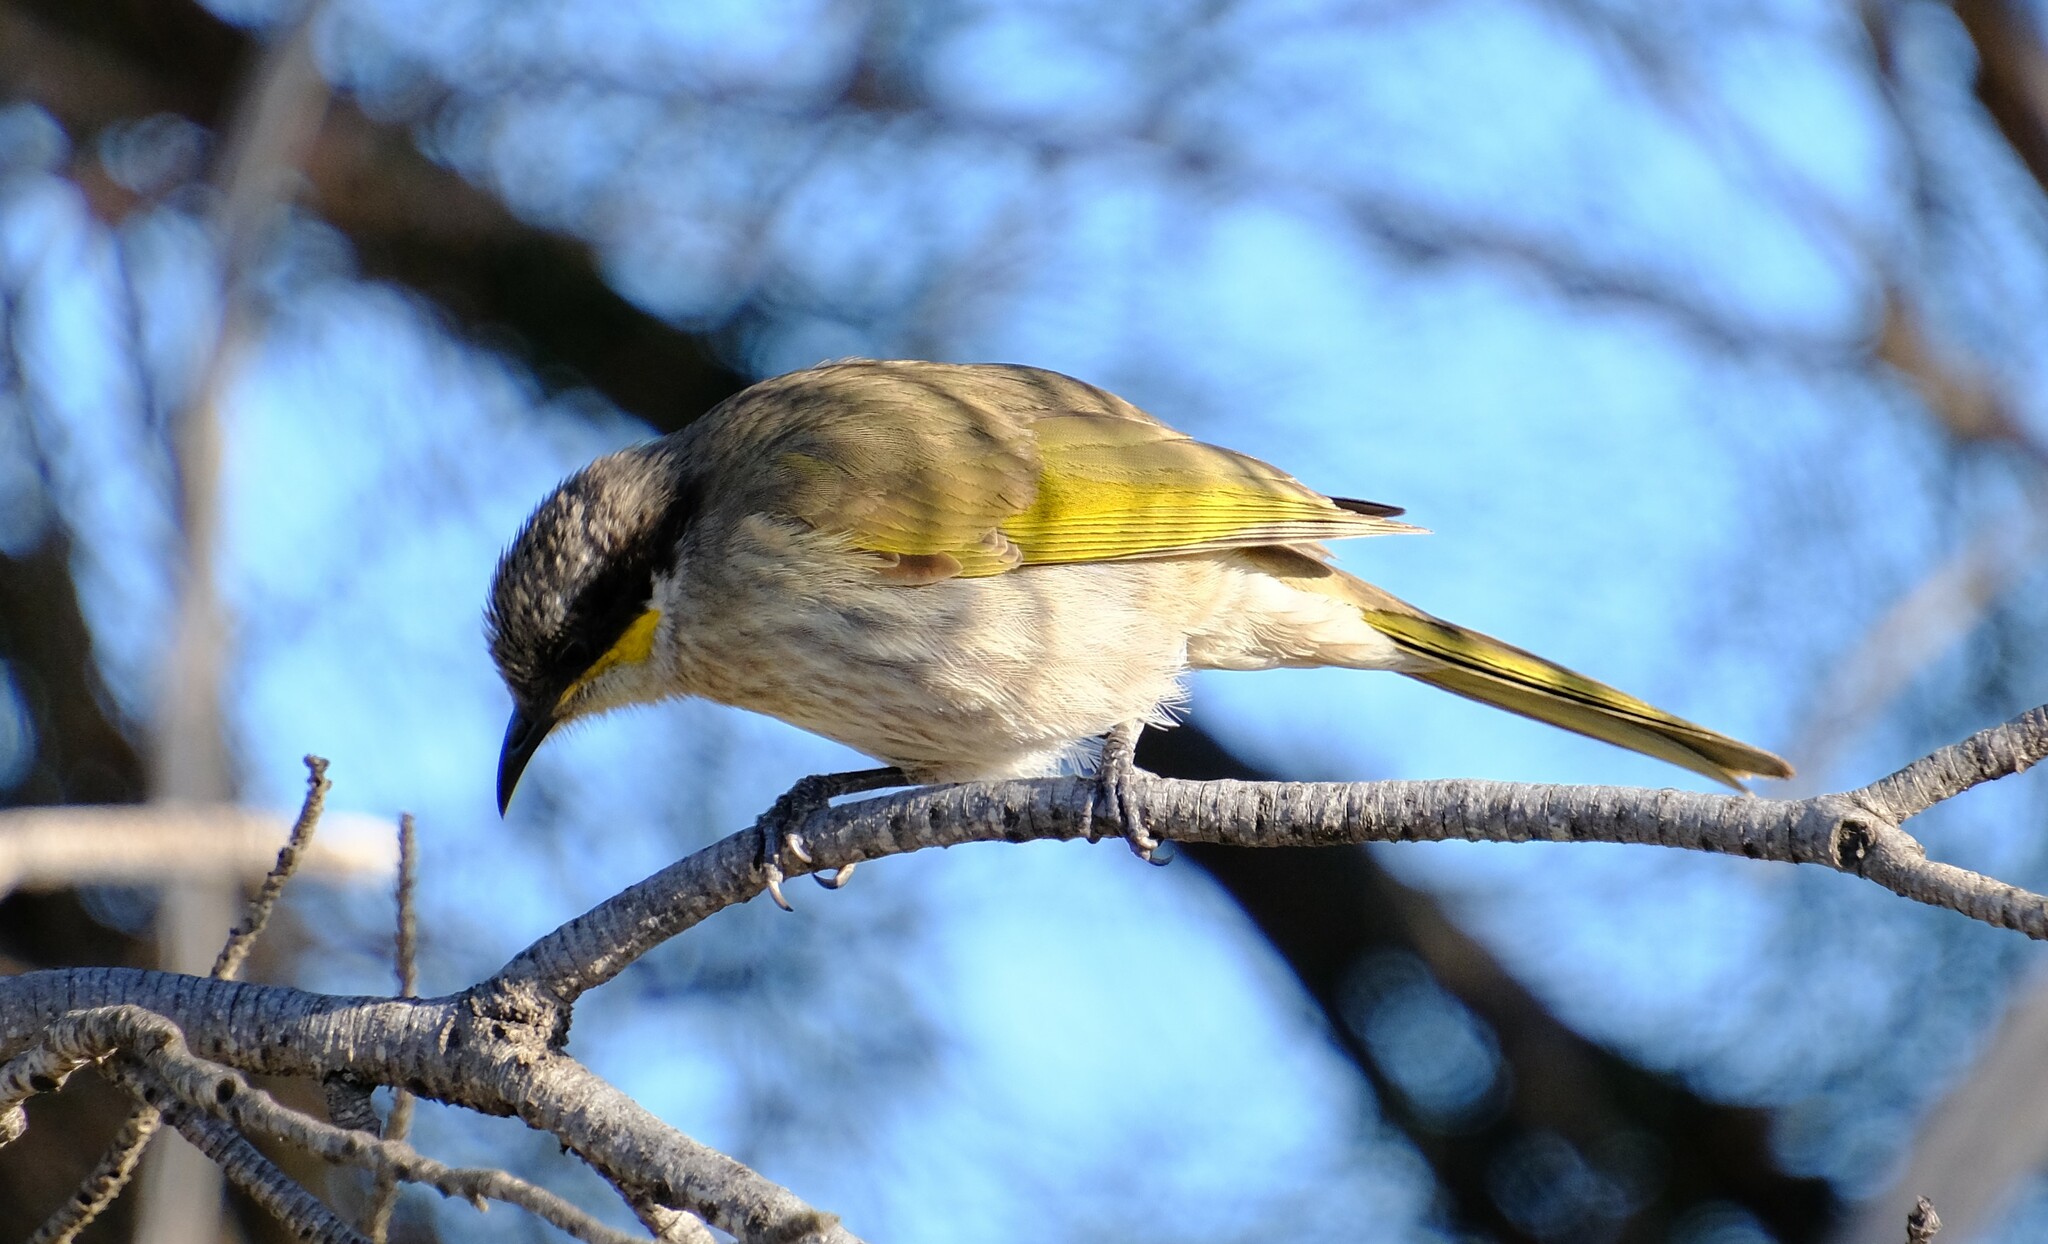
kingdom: Animalia
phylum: Chordata
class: Aves
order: Passeriformes
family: Meliphagidae
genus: Gavicalis
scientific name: Gavicalis virescens
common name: Singing honeyeater
